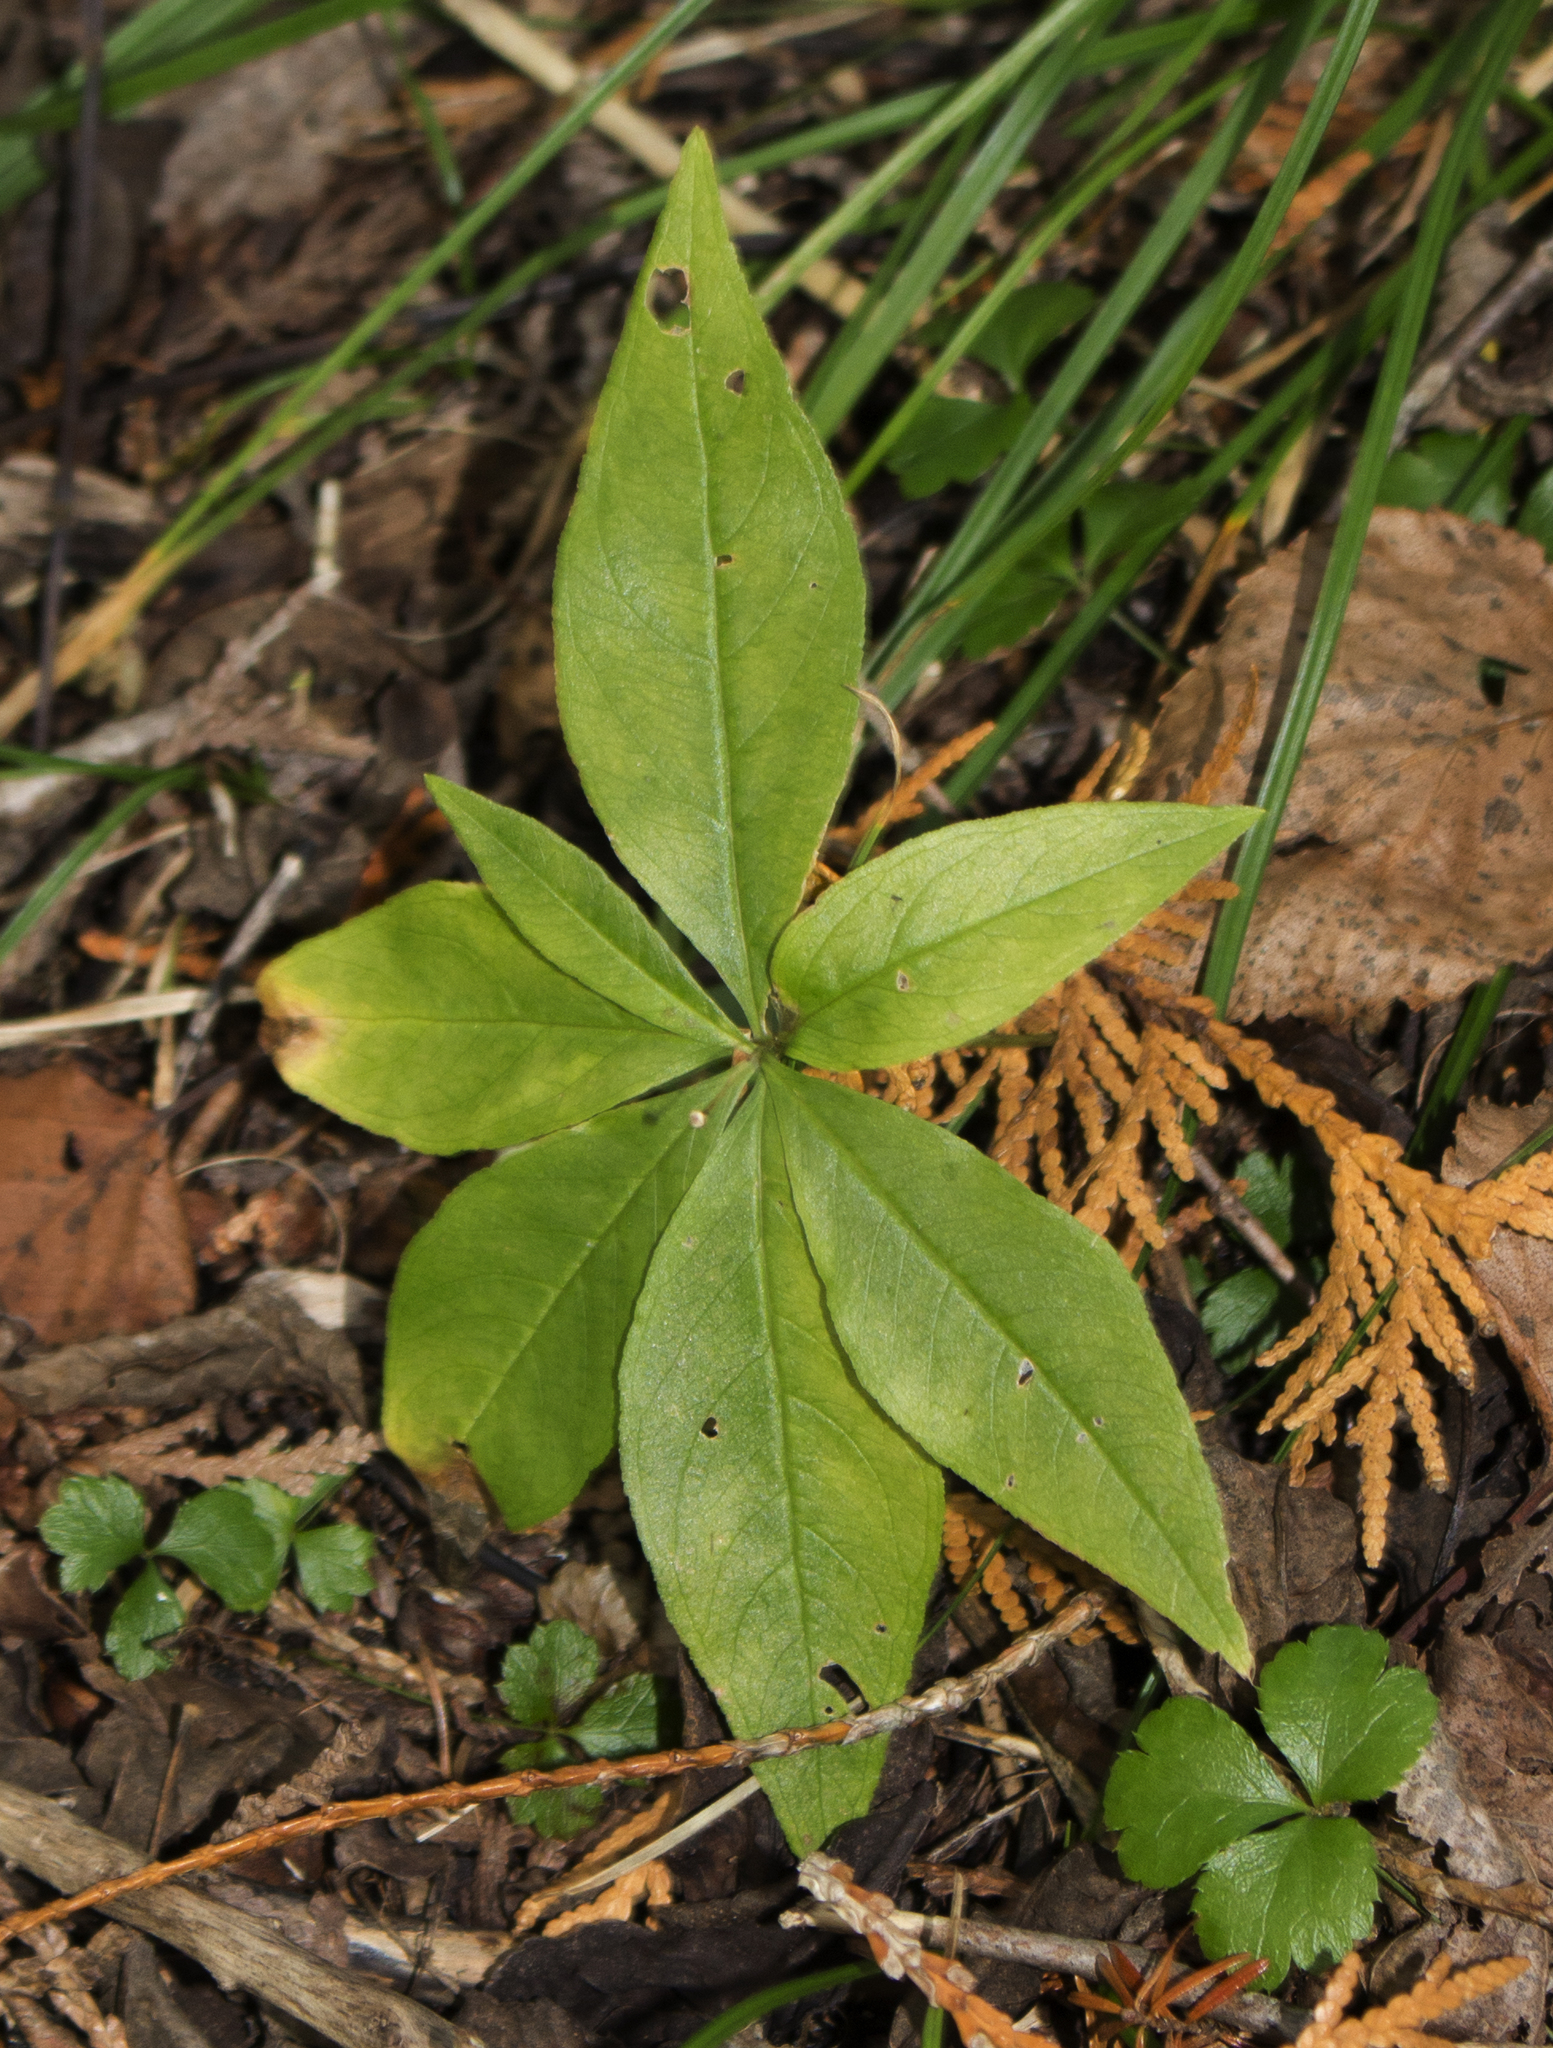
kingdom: Plantae
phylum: Tracheophyta
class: Magnoliopsida
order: Ericales
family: Primulaceae
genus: Lysimachia
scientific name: Lysimachia borealis
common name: American starflower
